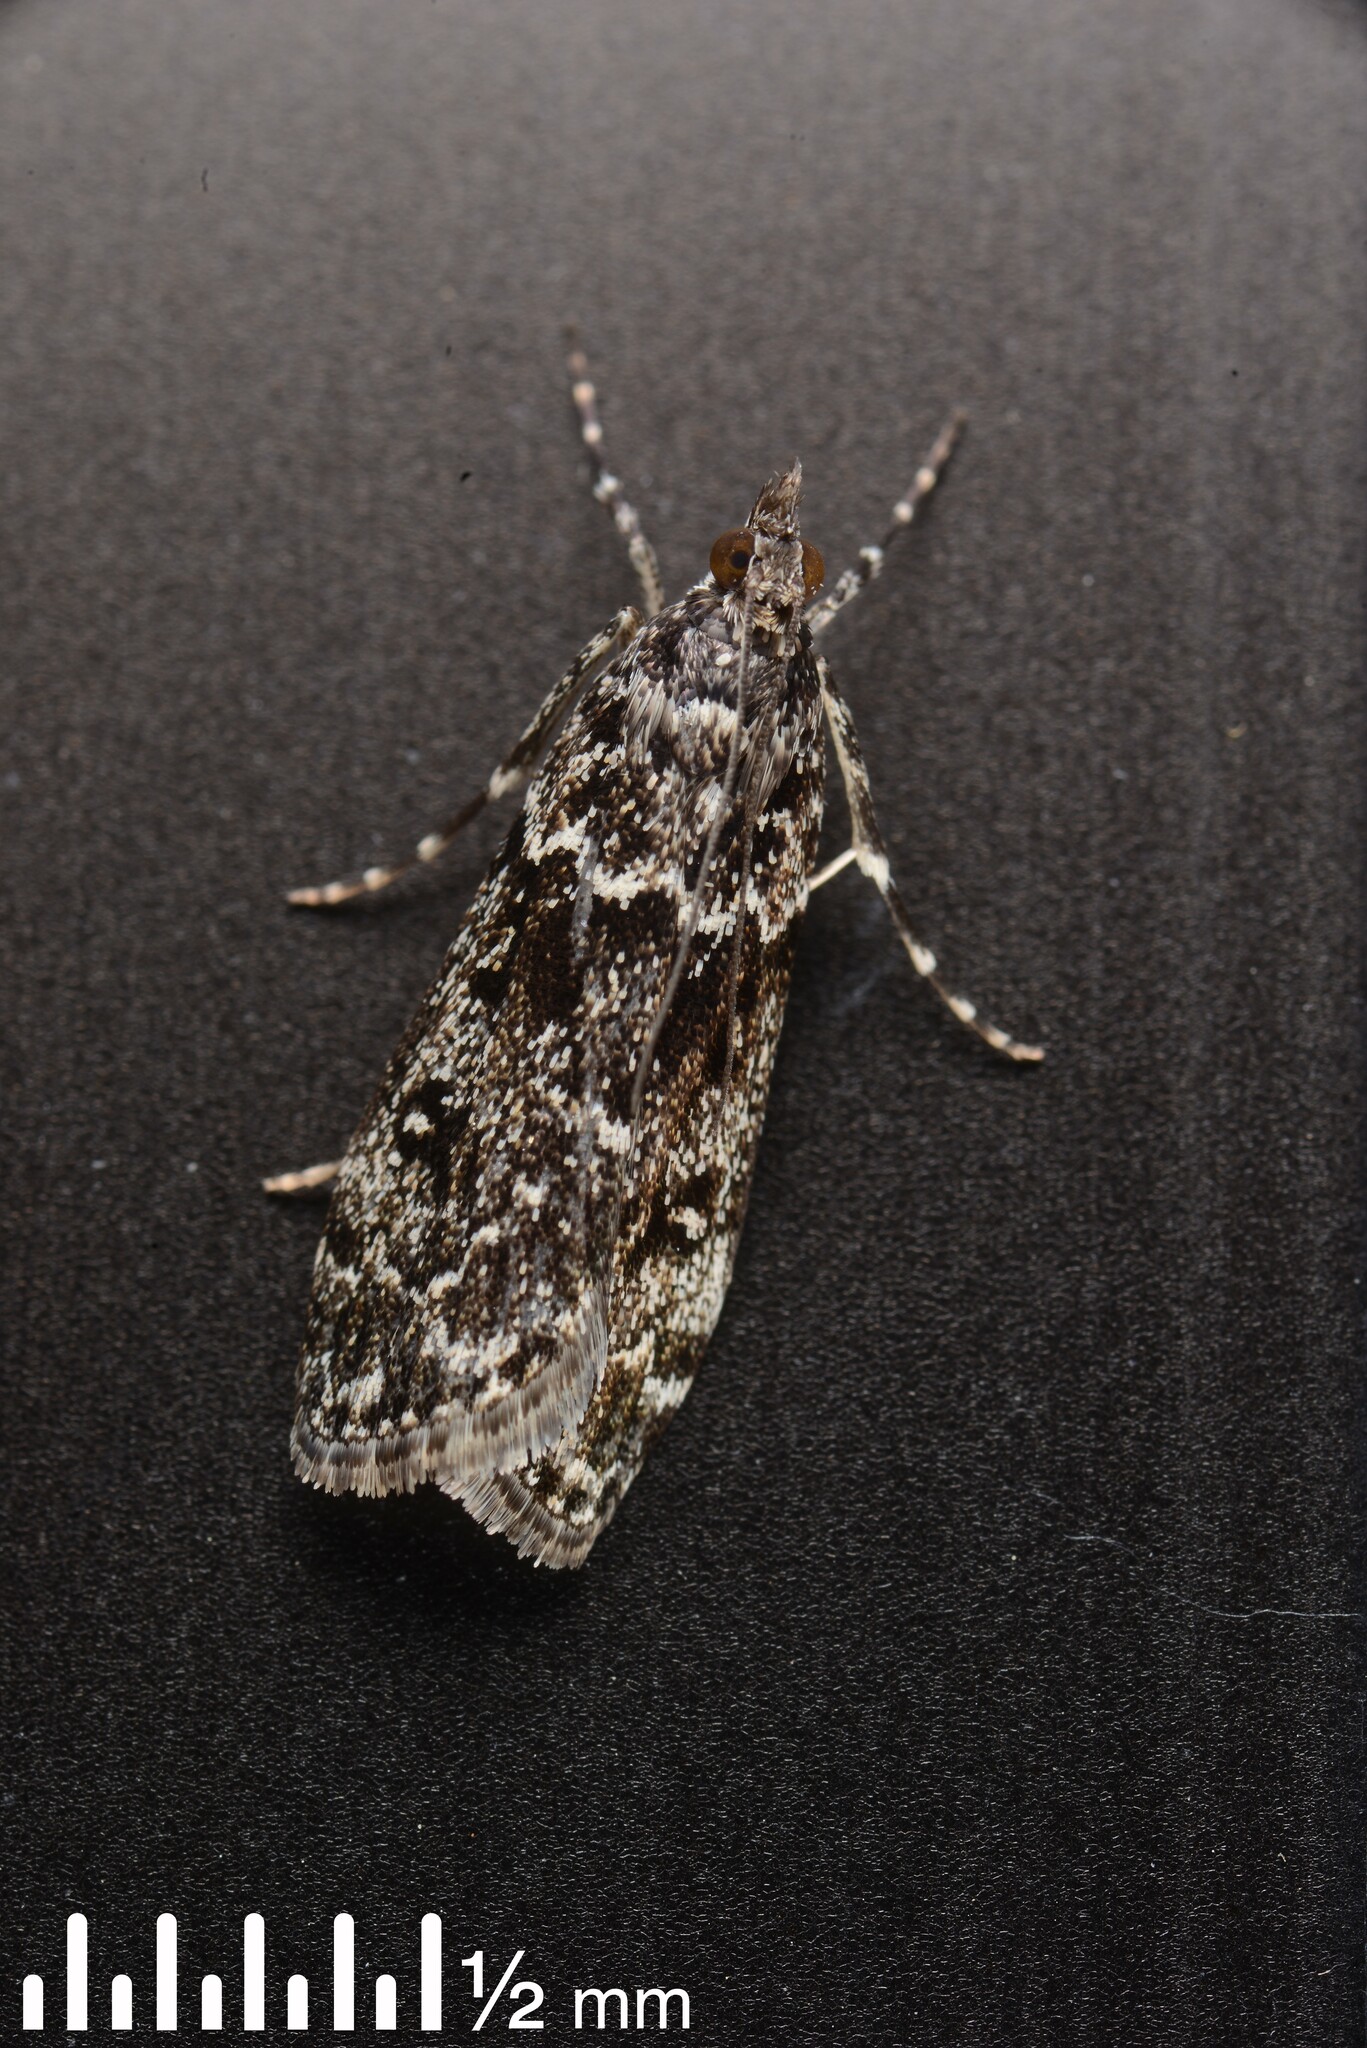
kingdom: Animalia
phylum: Arthropoda
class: Insecta
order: Lepidoptera
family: Crambidae
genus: Eudonia
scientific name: Eudonia philerga
